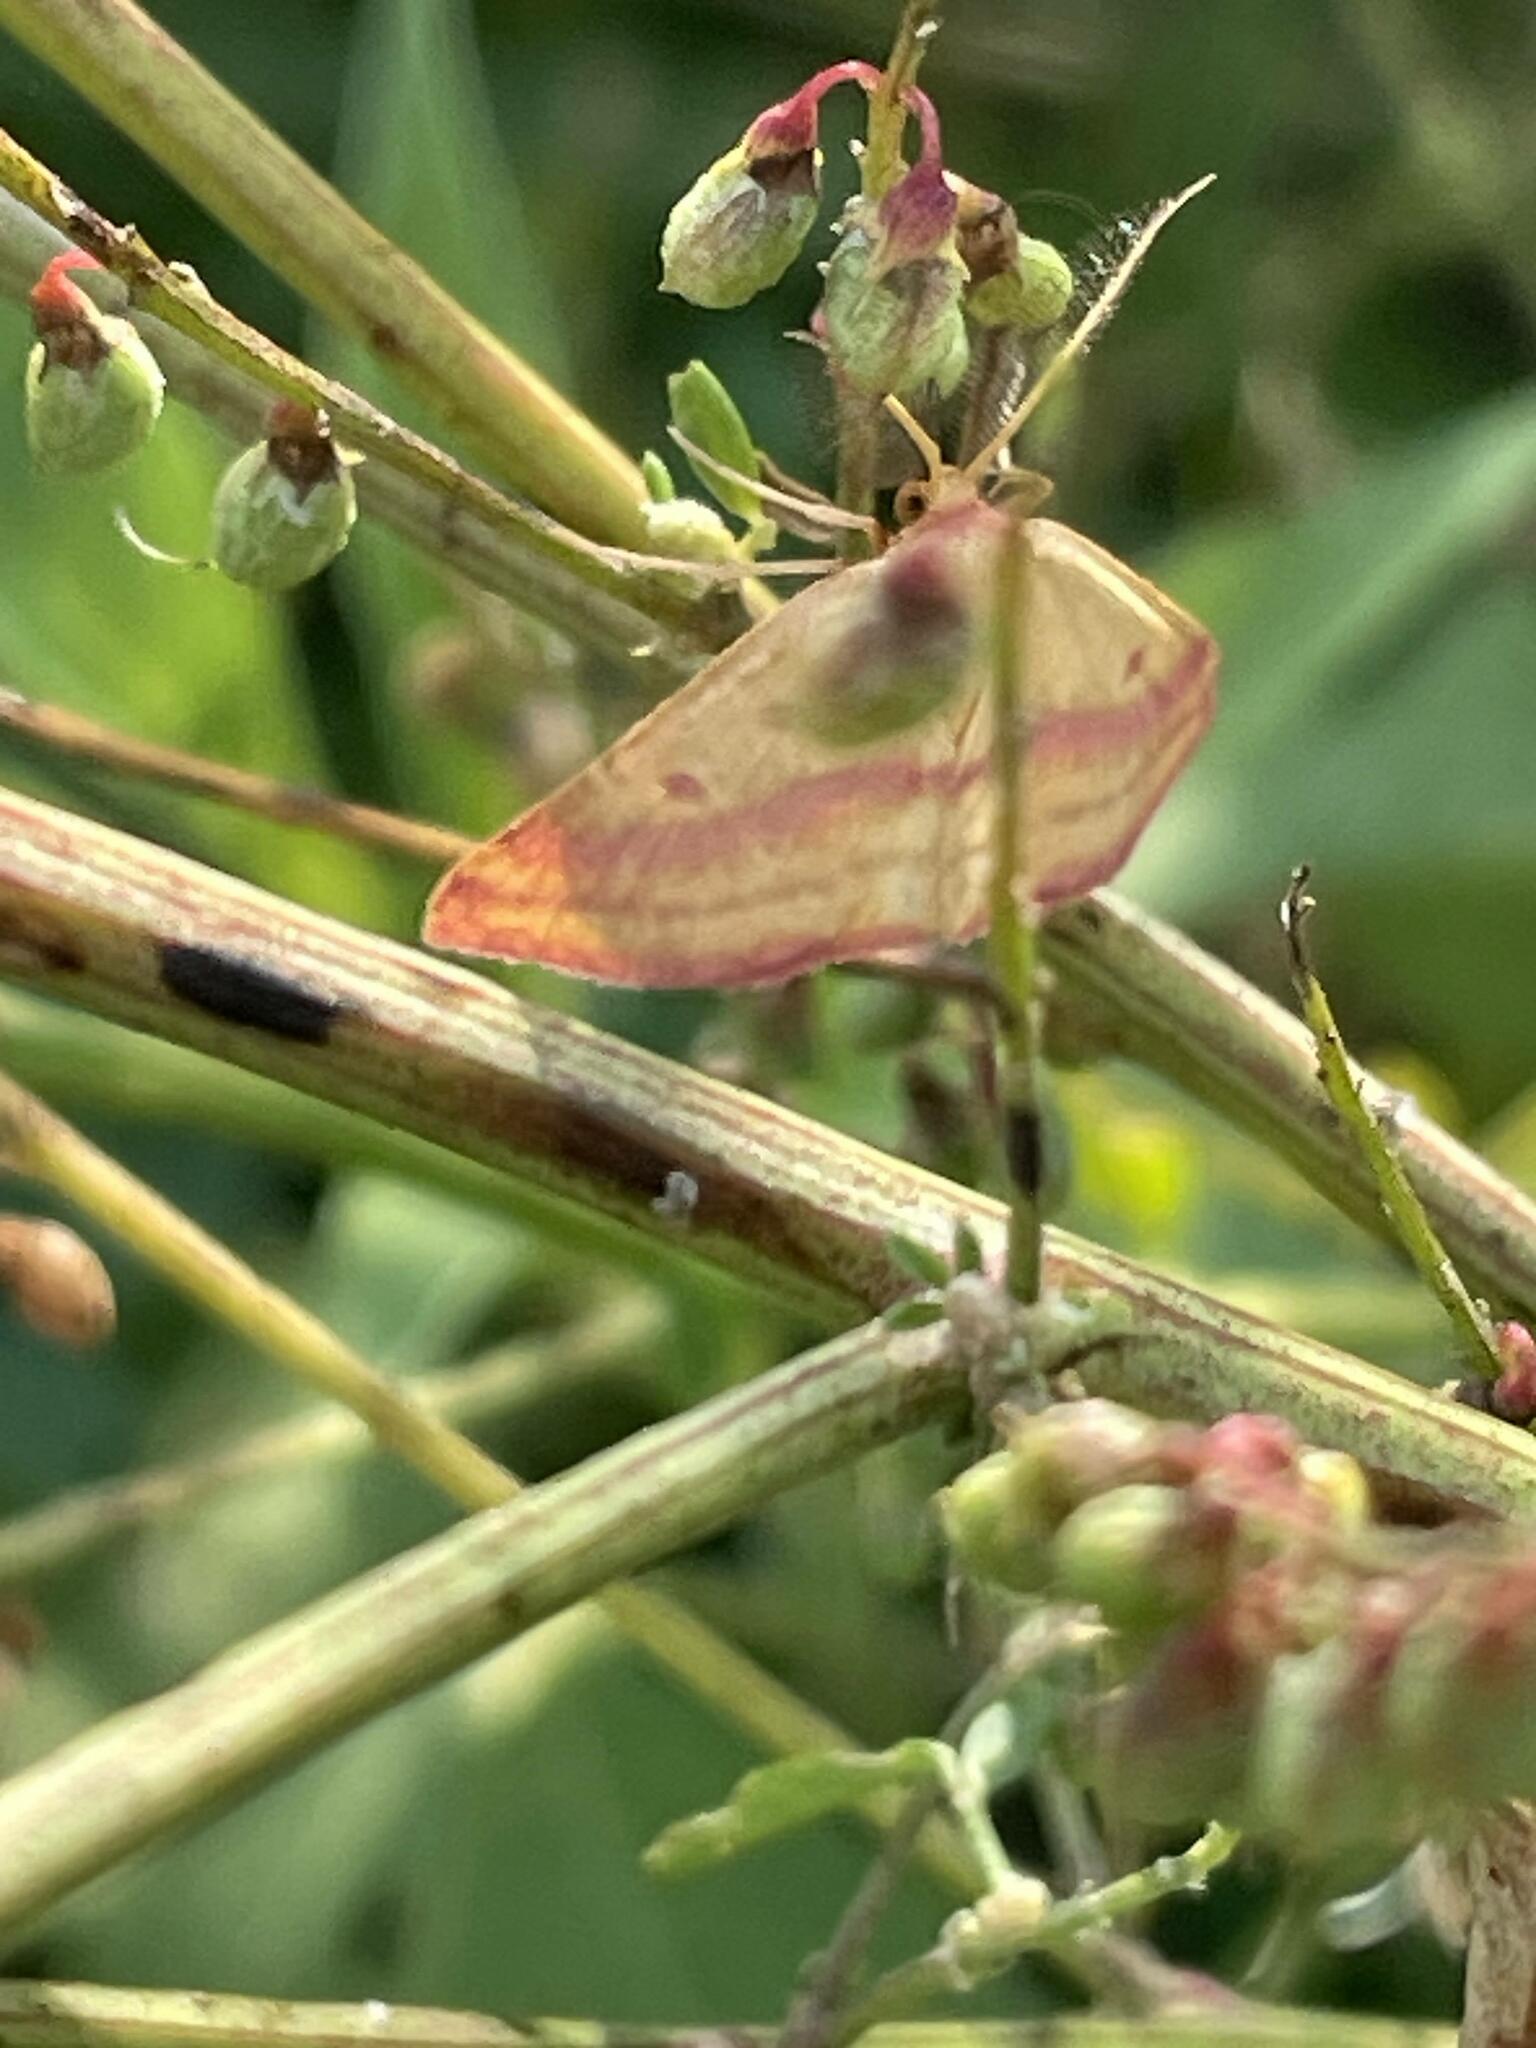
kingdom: Animalia
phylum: Arthropoda
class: Insecta
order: Lepidoptera
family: Geometridae
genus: Haematopis
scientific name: Haematopis grataria
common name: Chickweed geometer
